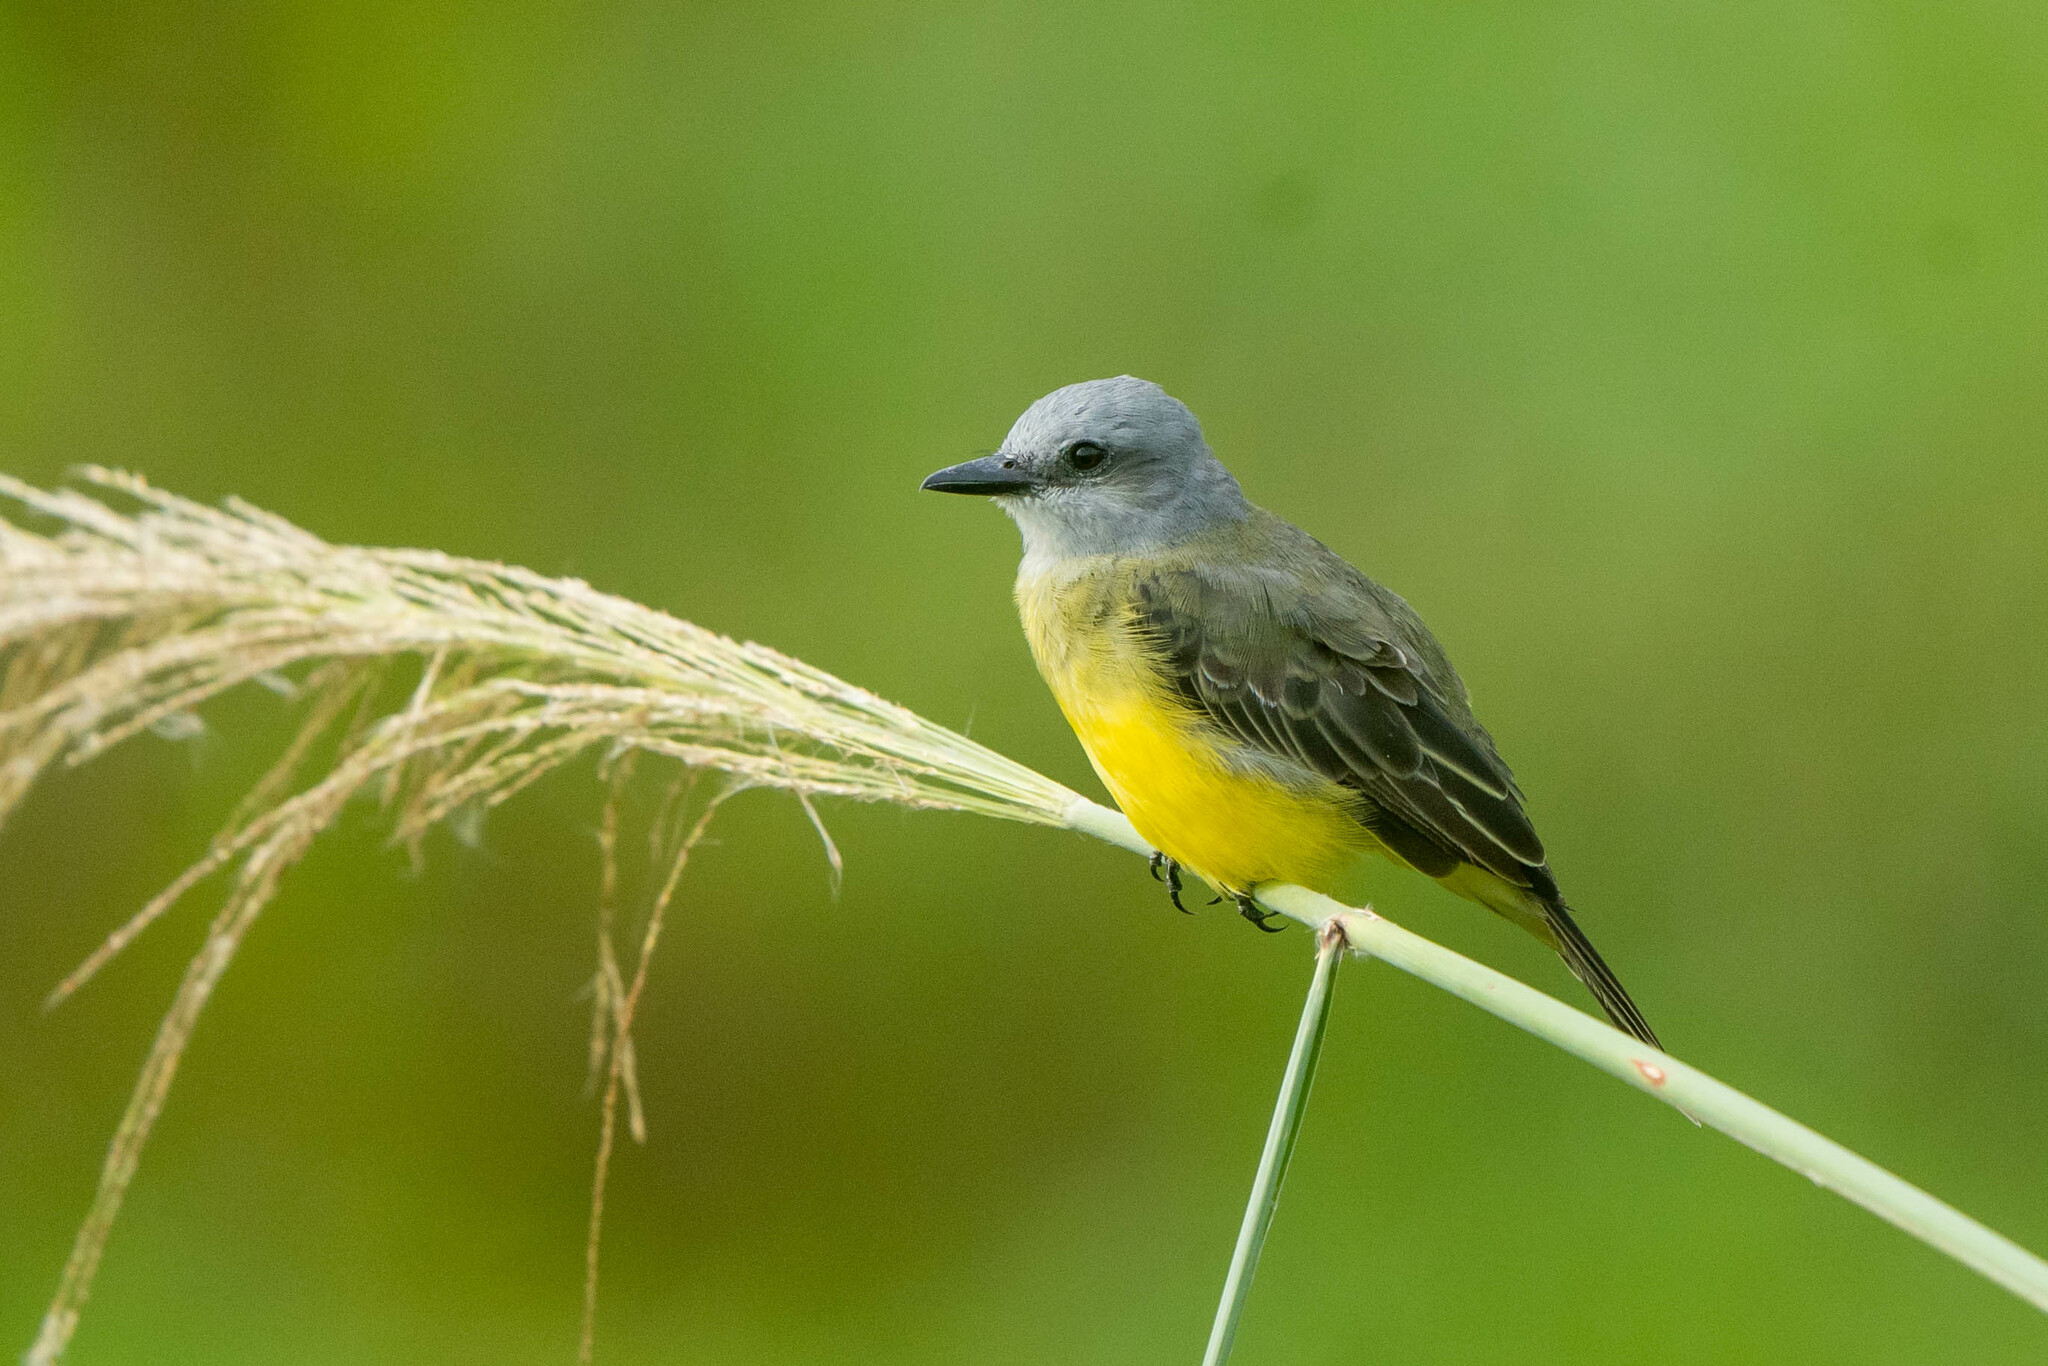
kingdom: Animalia
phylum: Chordata
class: Aves
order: Passeriformes
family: Tyrannidae
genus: Tyrannus
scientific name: Tyrannus melancholicus
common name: Tropical kingbird
